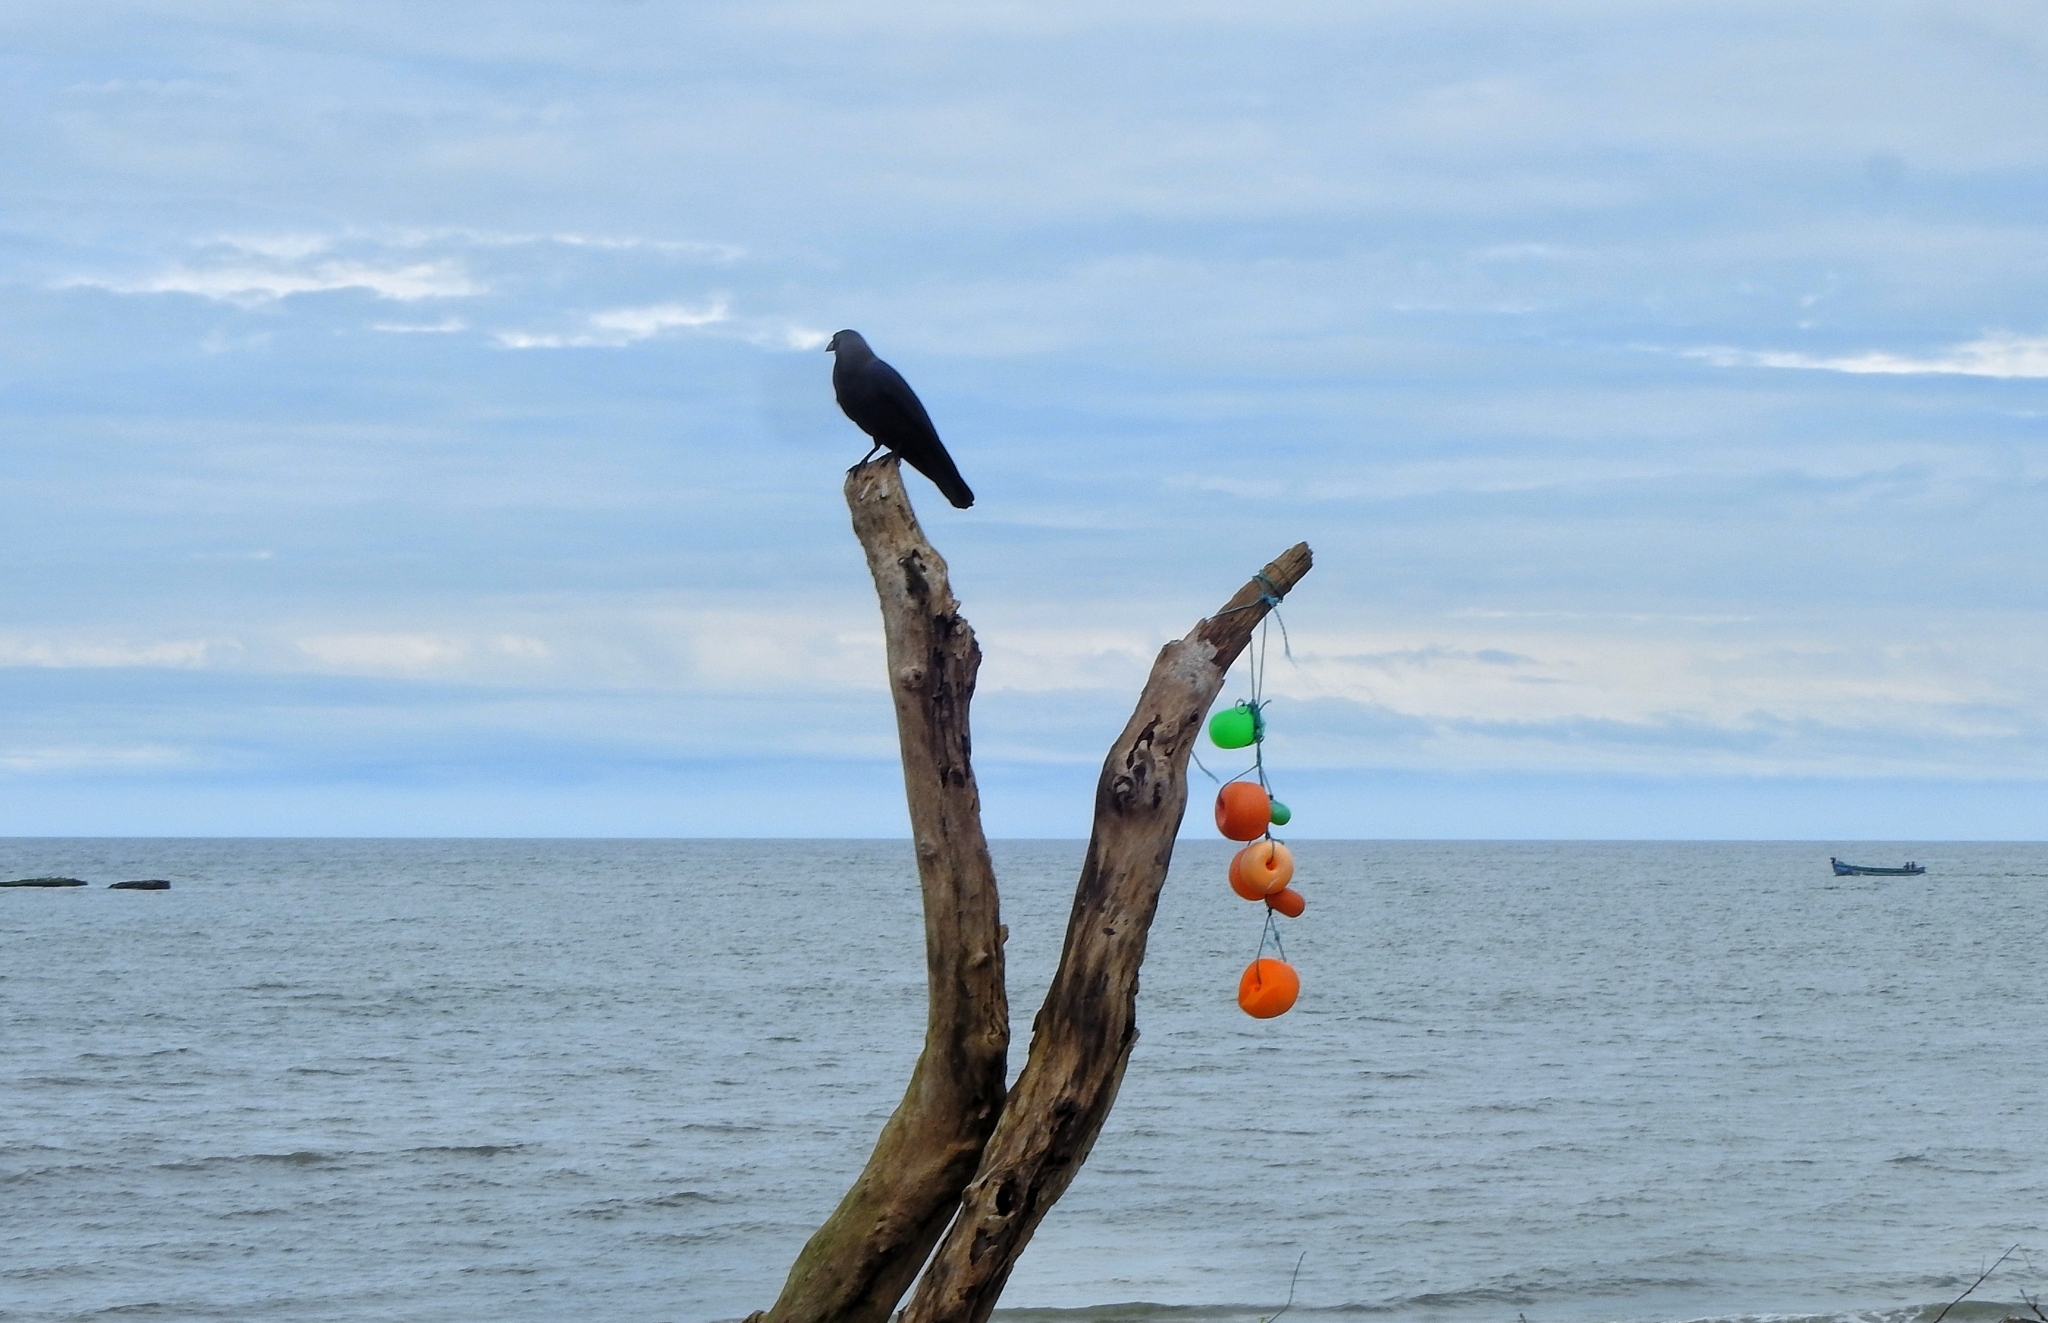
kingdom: Animalia
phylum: Chordata
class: Aves
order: Passeriformes
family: Corvidae
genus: Corvus
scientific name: Corvus splendens
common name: House crow
